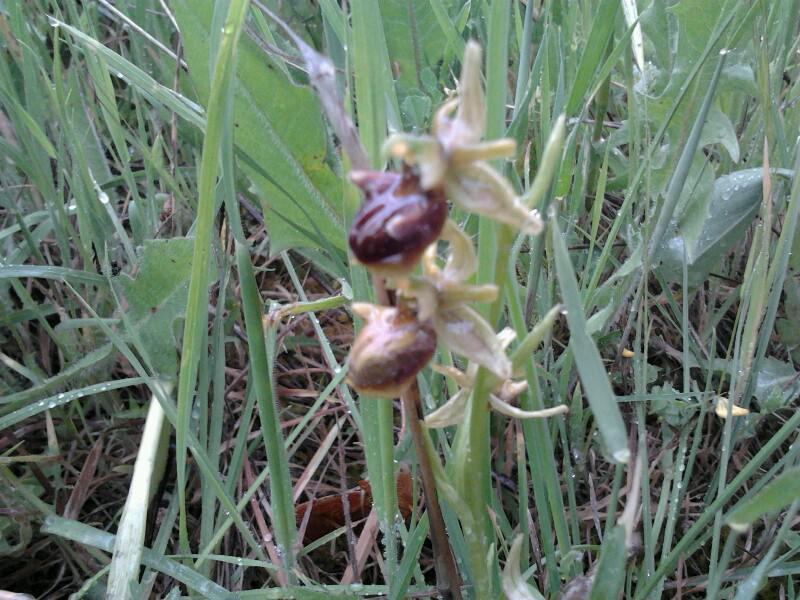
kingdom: Plantae
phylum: Tracheophyta
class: Liliopsida
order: Asparagales
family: Orchidaceae
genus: Ophrys
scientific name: Ophrys sphegodes
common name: Early spider-orchid
